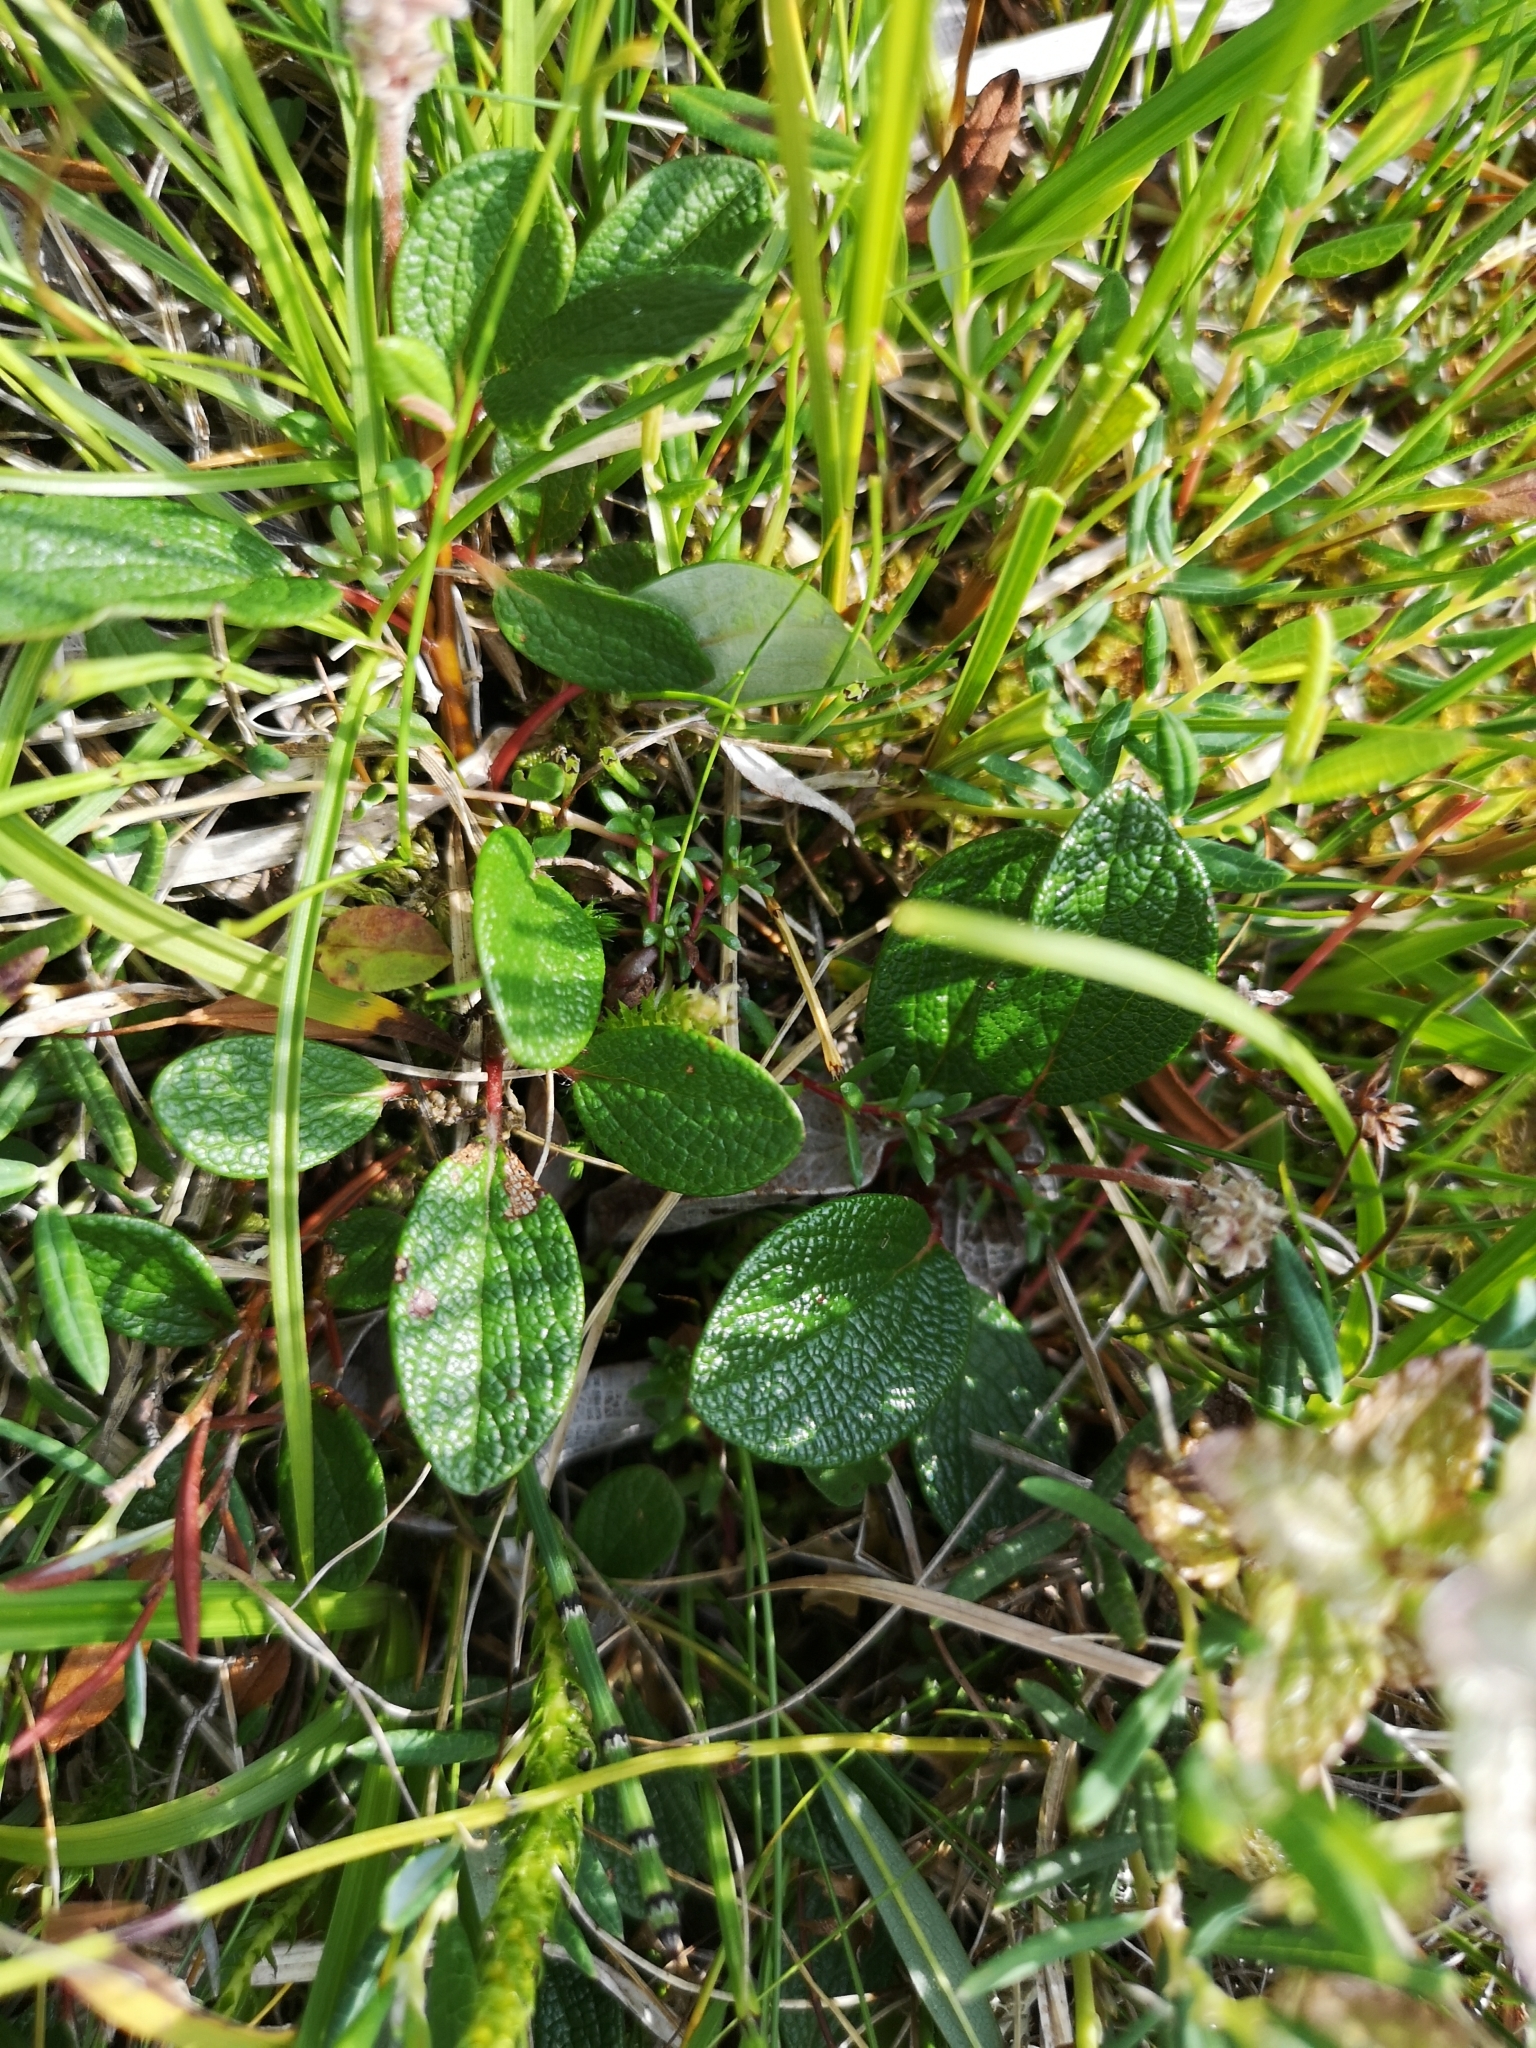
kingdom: Plantae
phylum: Tracheophyta
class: Magnoliopsida
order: Malpighiales
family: Salicaceae
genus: Salix
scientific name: Salix reticulata
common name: Net-leaved willow
